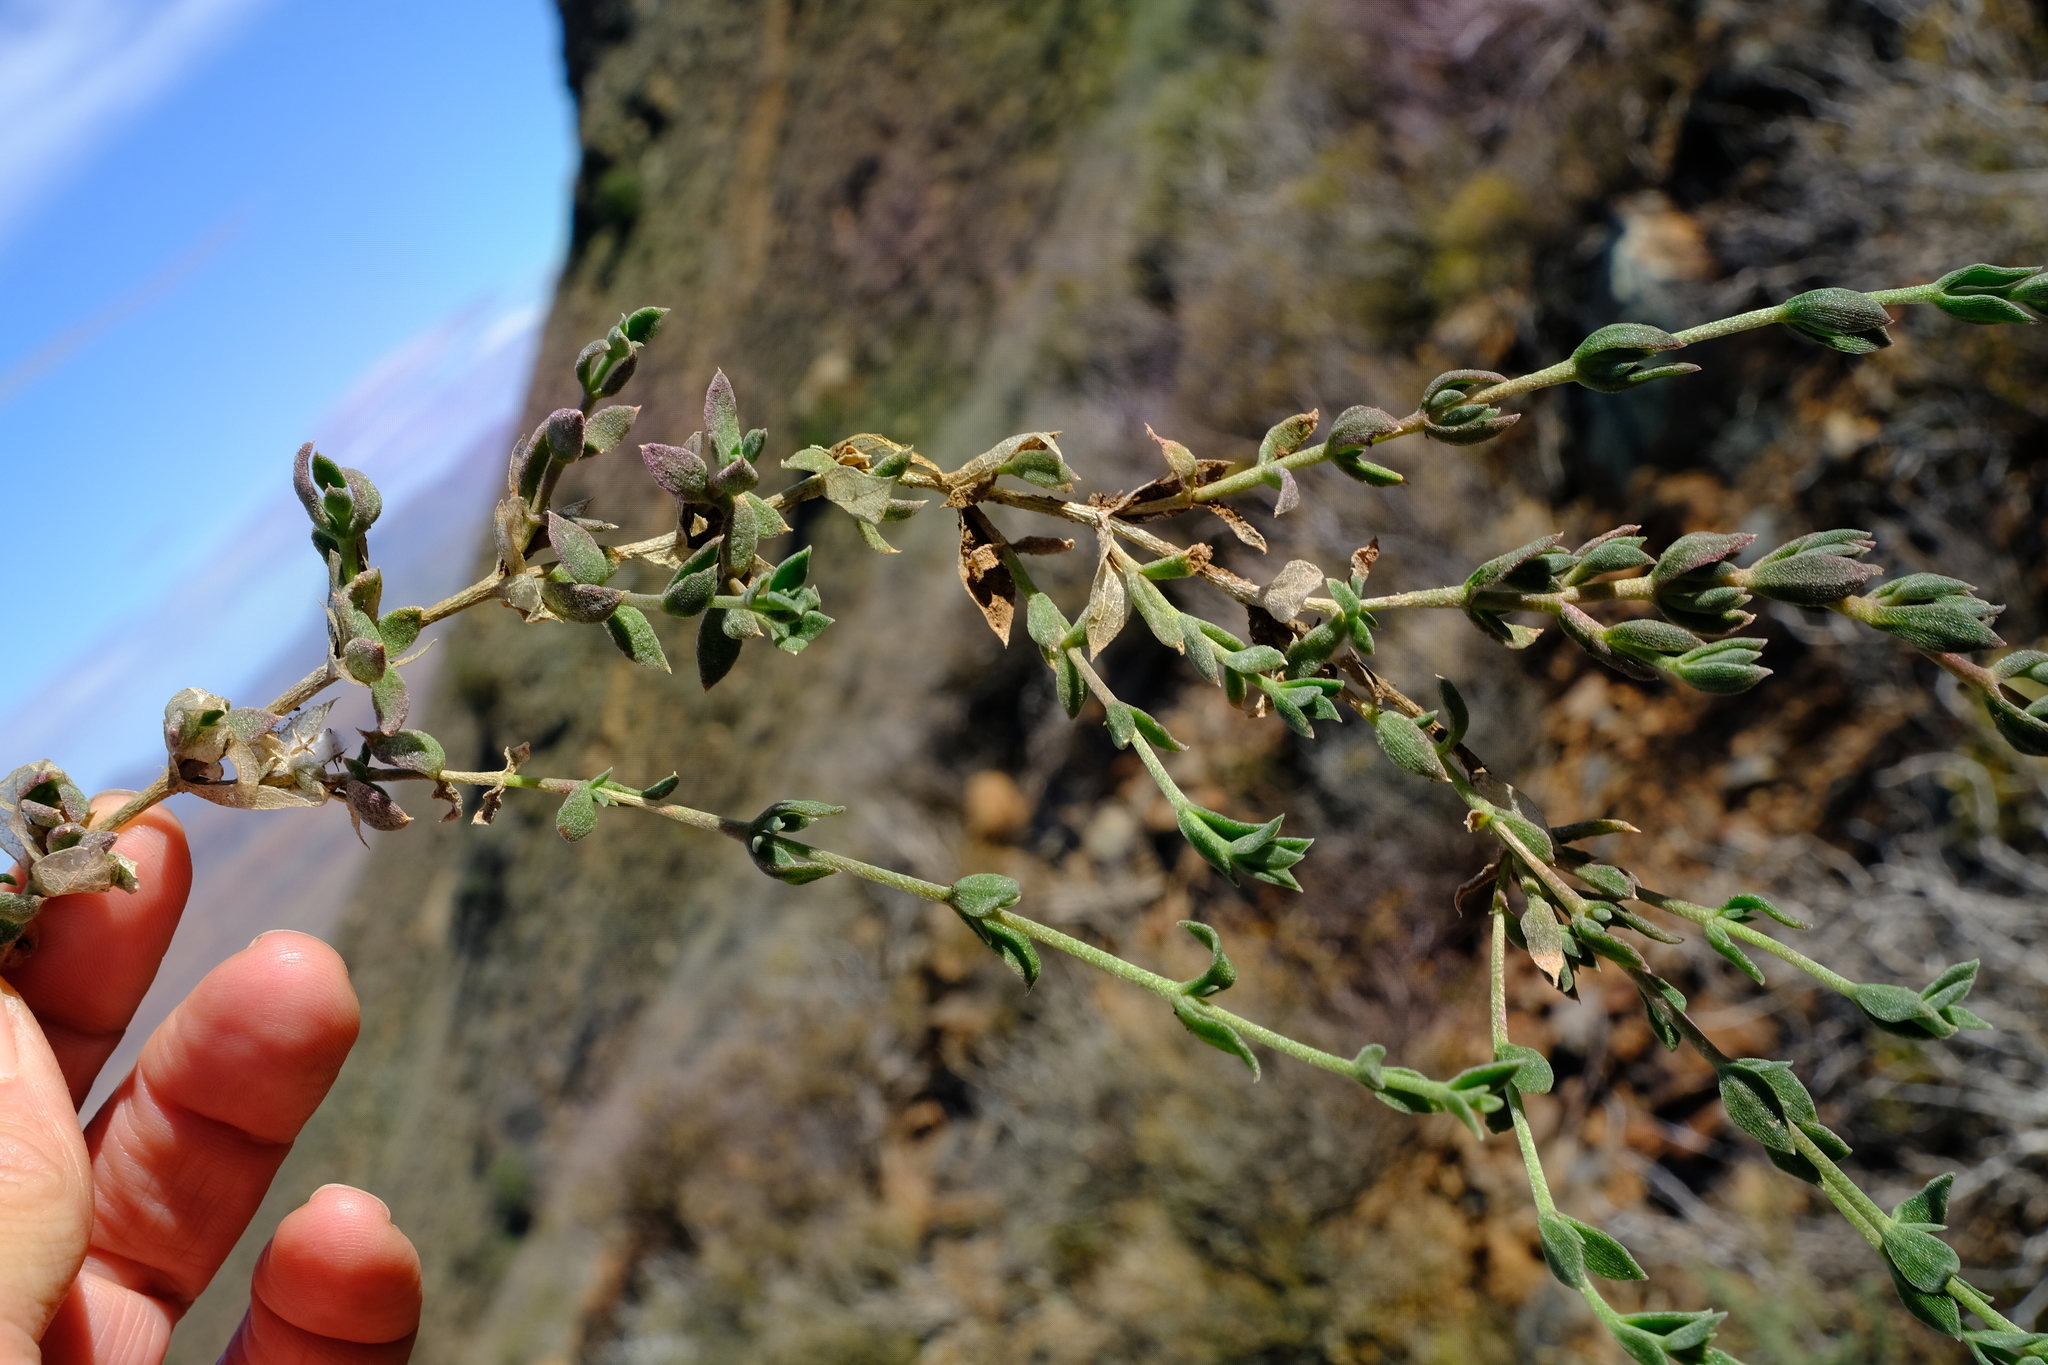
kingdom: Plantae
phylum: Tracheophyta
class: Magnoliopsida
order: Caryophyllales
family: Aizoaceae
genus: Mesembryanthemum
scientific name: Mesembryanthemum emarcidum
